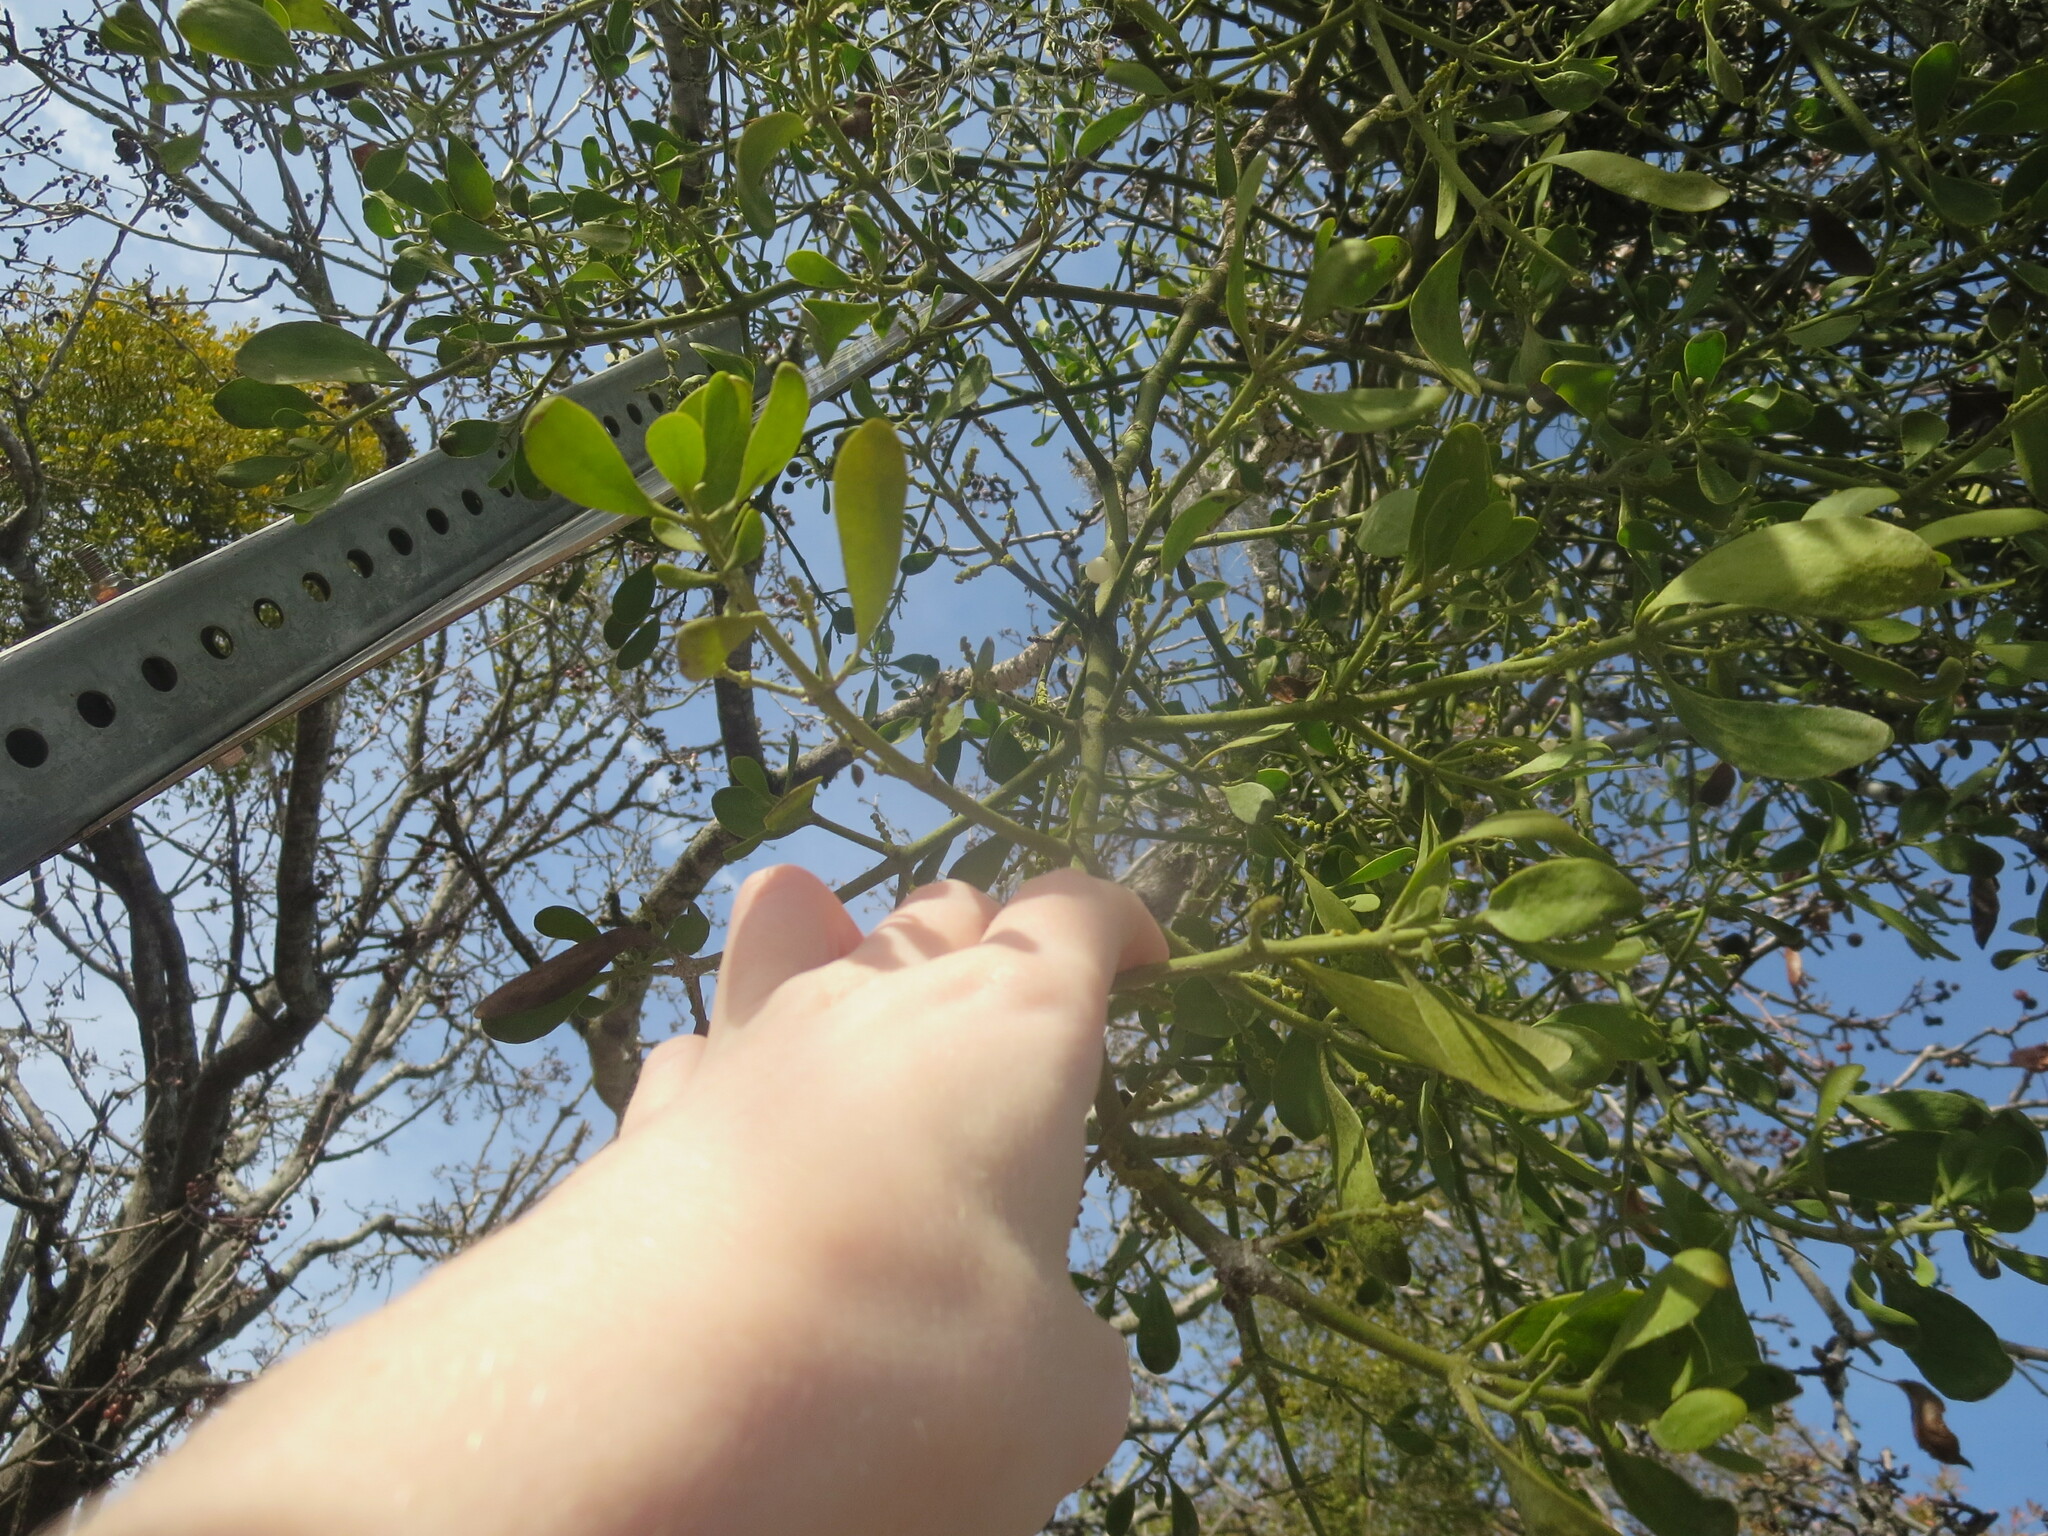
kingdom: Plantae
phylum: Tracheophyta
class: Magnoliopsida
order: Santalales
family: Viscaceae
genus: Phoradendron
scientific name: Phoradendron leucarpum
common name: Pacific mistletoe
